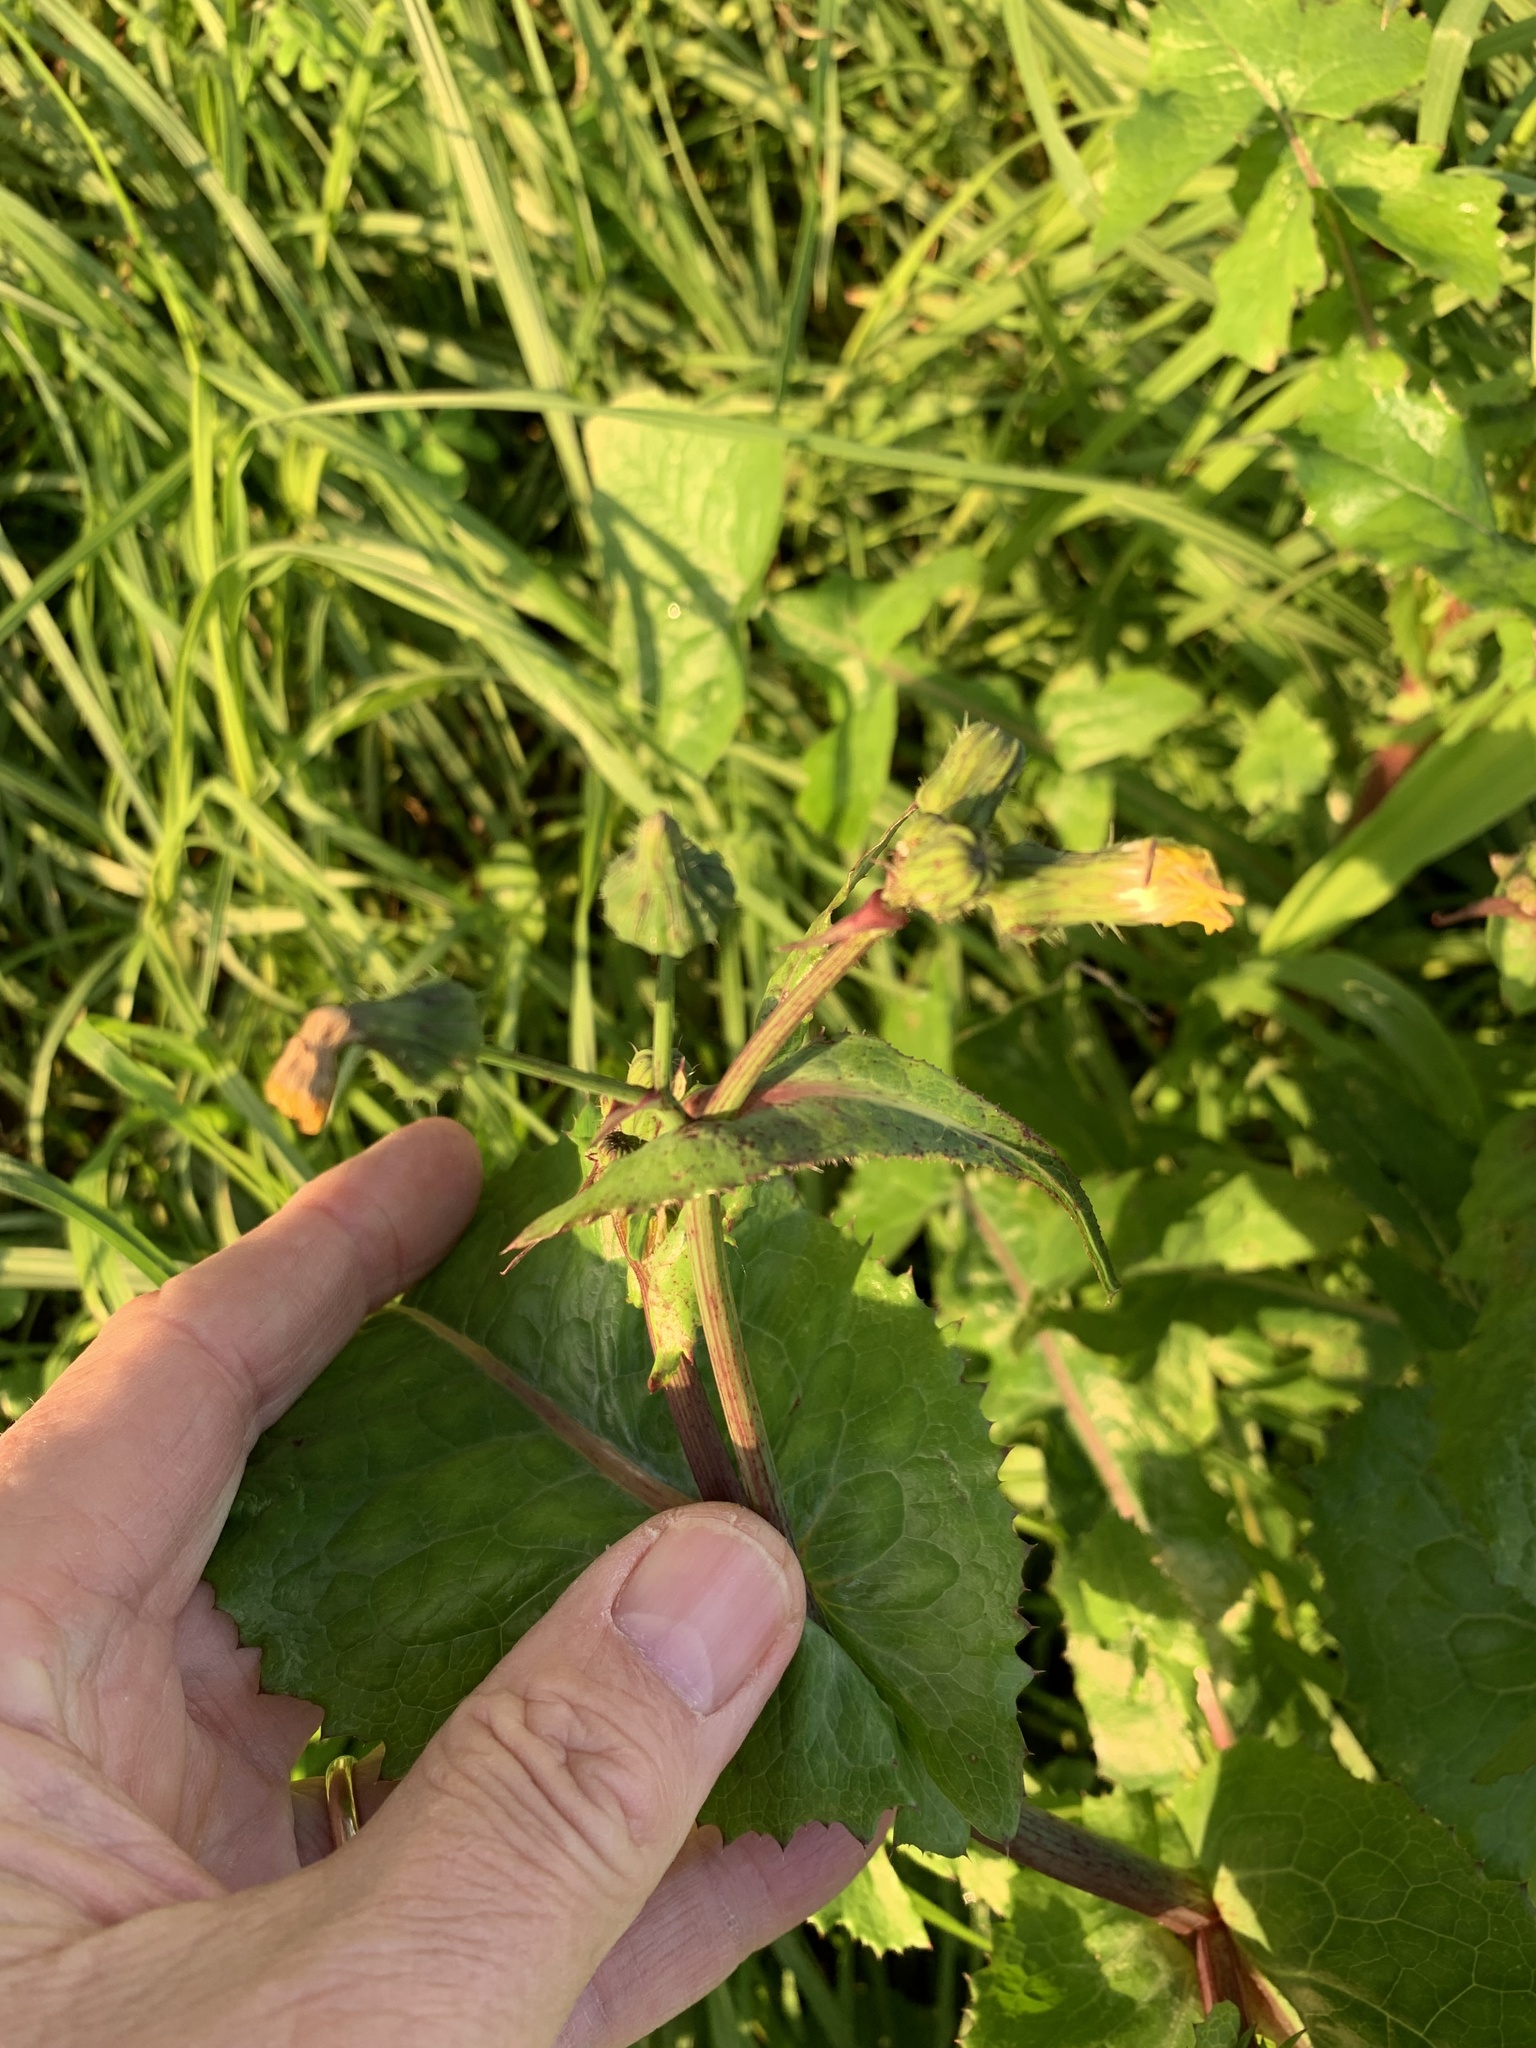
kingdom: Plantae
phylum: Tracheophyta
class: Magnoliopsida
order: Asterales
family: Asteraceae
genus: Sonchus
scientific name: Sonchus oleraceus
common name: Common sowthistle
